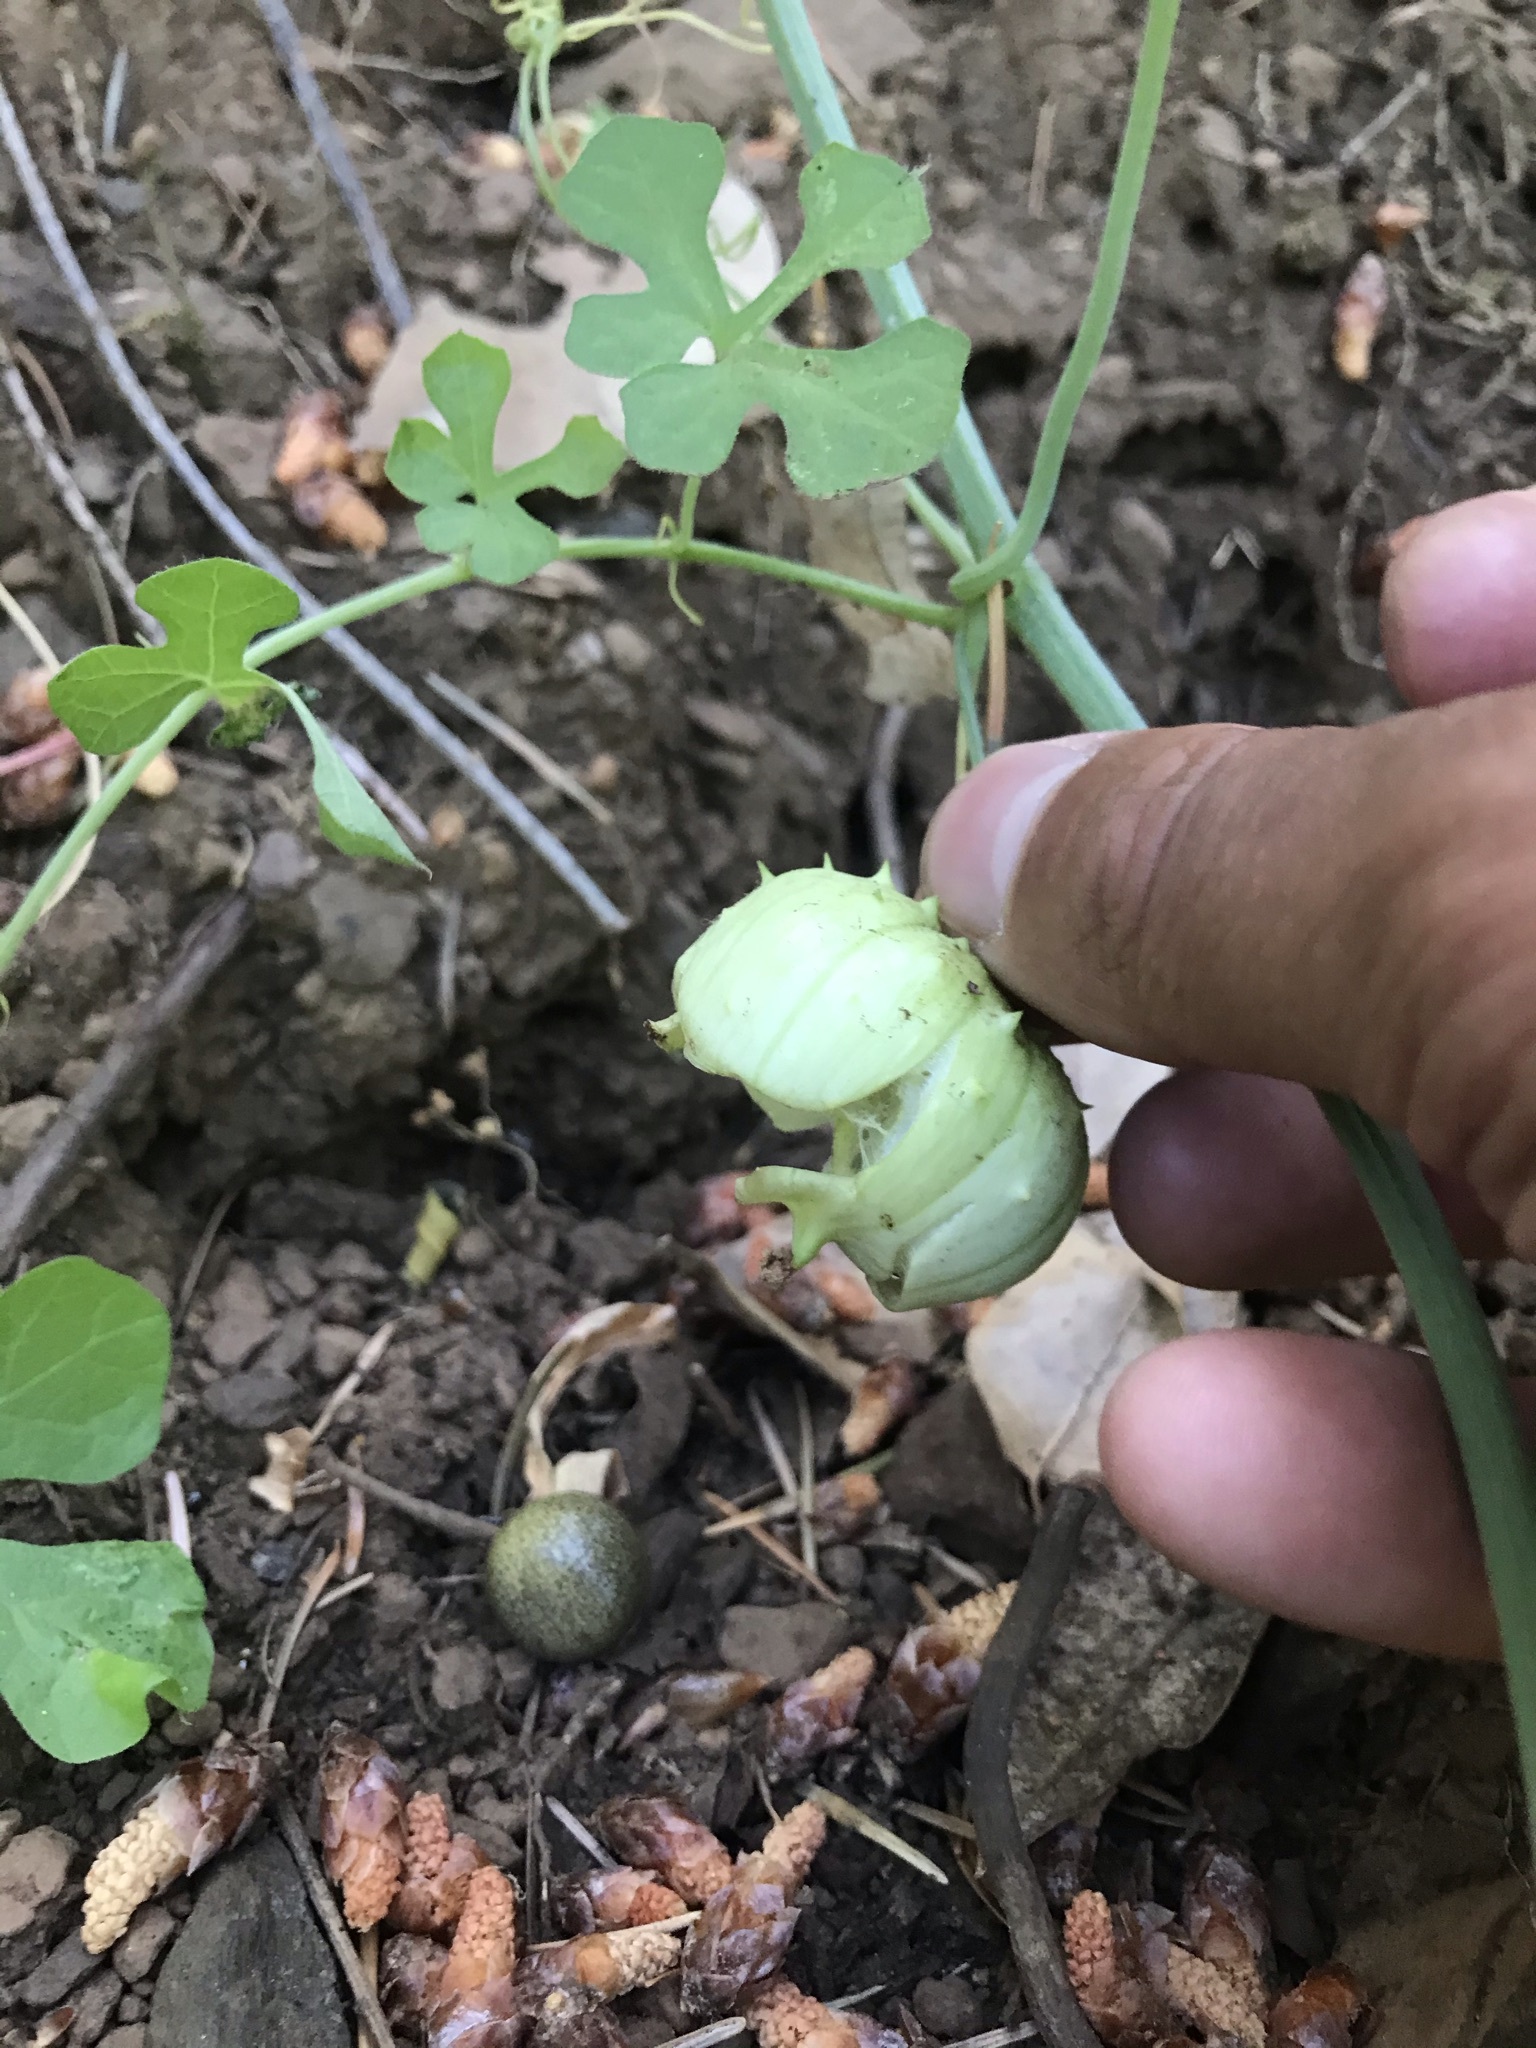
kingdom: Plantae
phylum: Tracheophyta
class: Magnoliopsida
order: Cucurbitales
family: Cucurbitaceae
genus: Marah
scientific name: Marah watsonii
